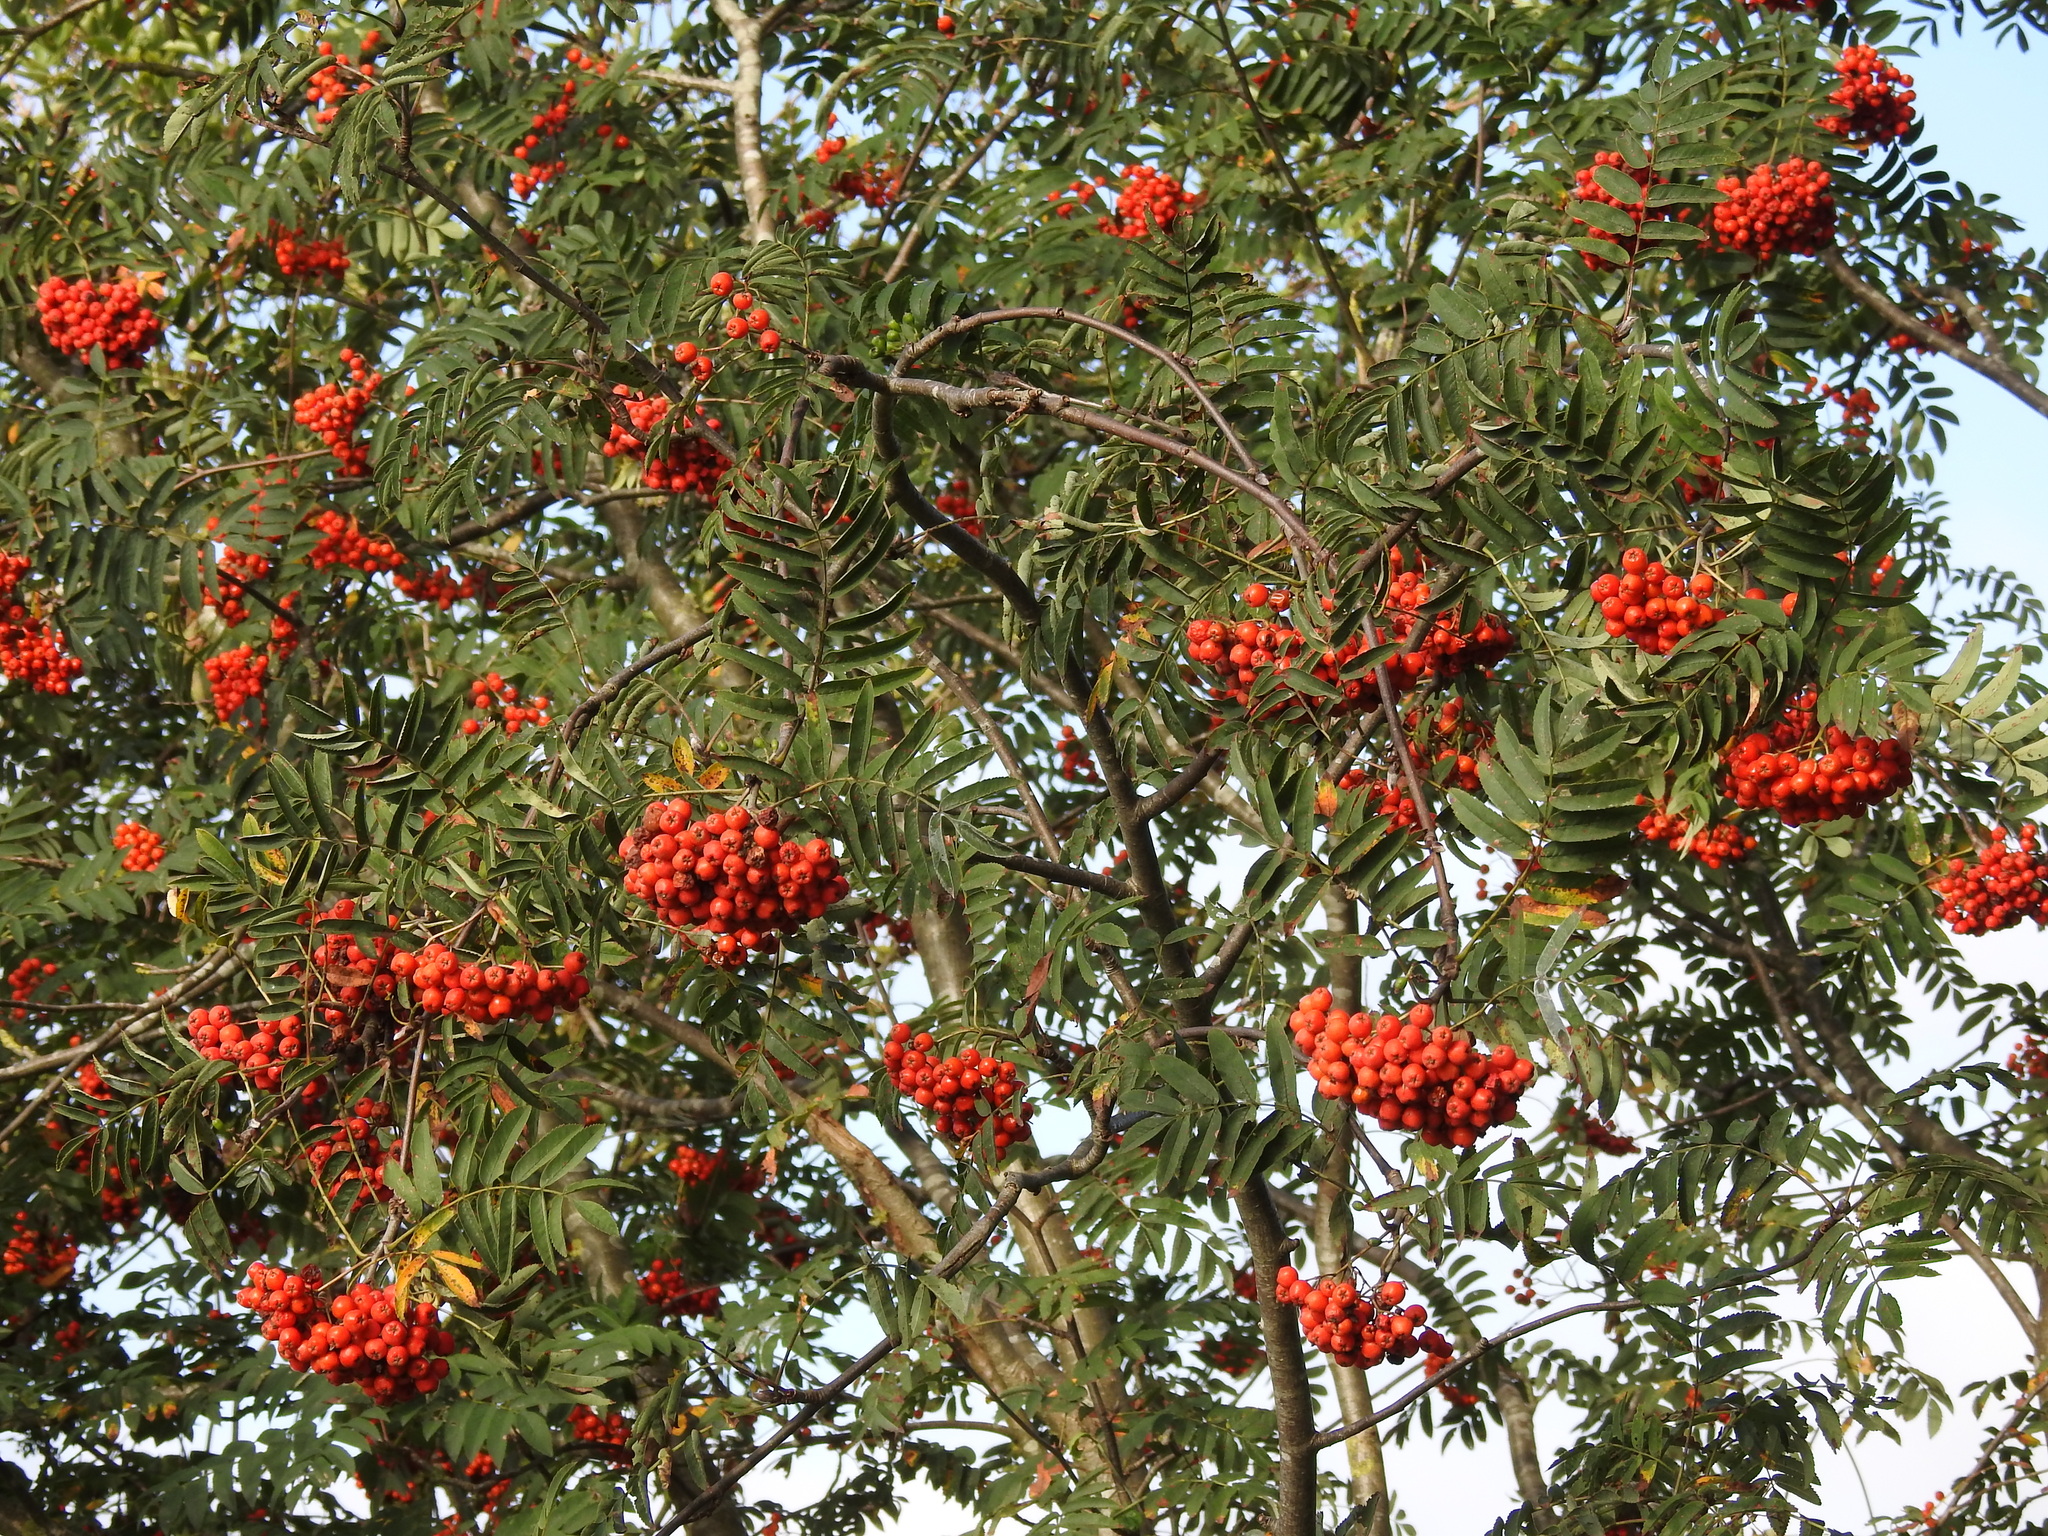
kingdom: Plantae
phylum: Tracheophyta
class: Magnoliopsida
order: Rosales
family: Rosaceae
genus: Sorbus
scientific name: Sorbus aucuparia
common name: Rowan
